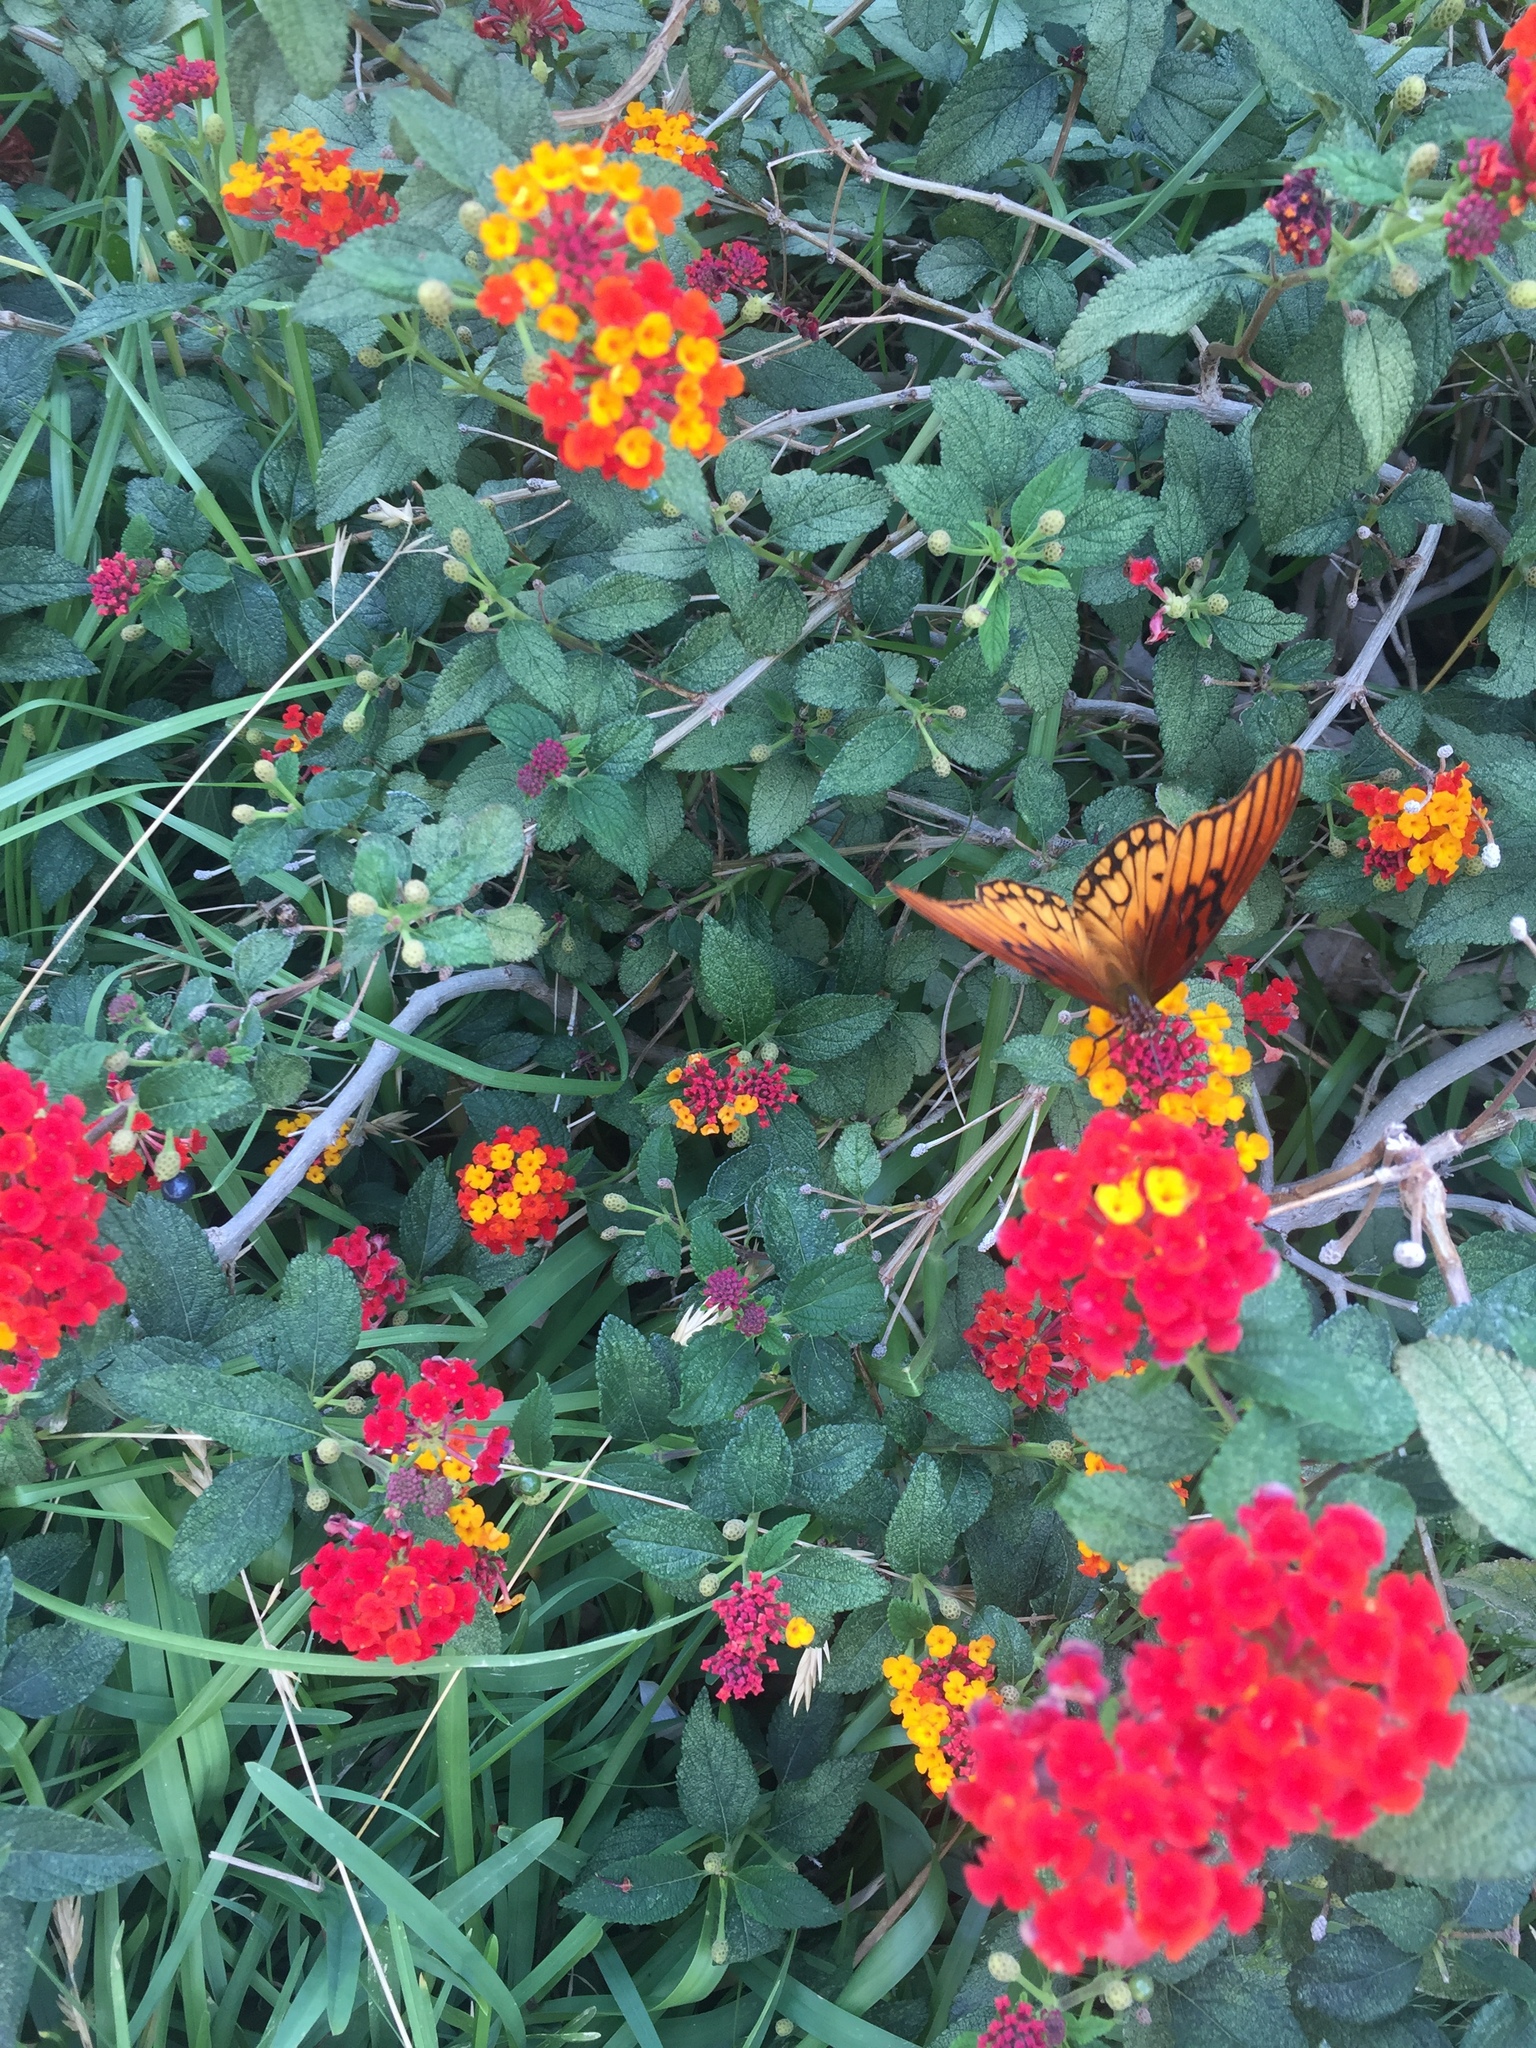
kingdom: Animalia
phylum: Arthropoda
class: Insecta
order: Lepidoptera
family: Nymphalidae
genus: Dione
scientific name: Dione moneta
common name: Mexican silverspot
